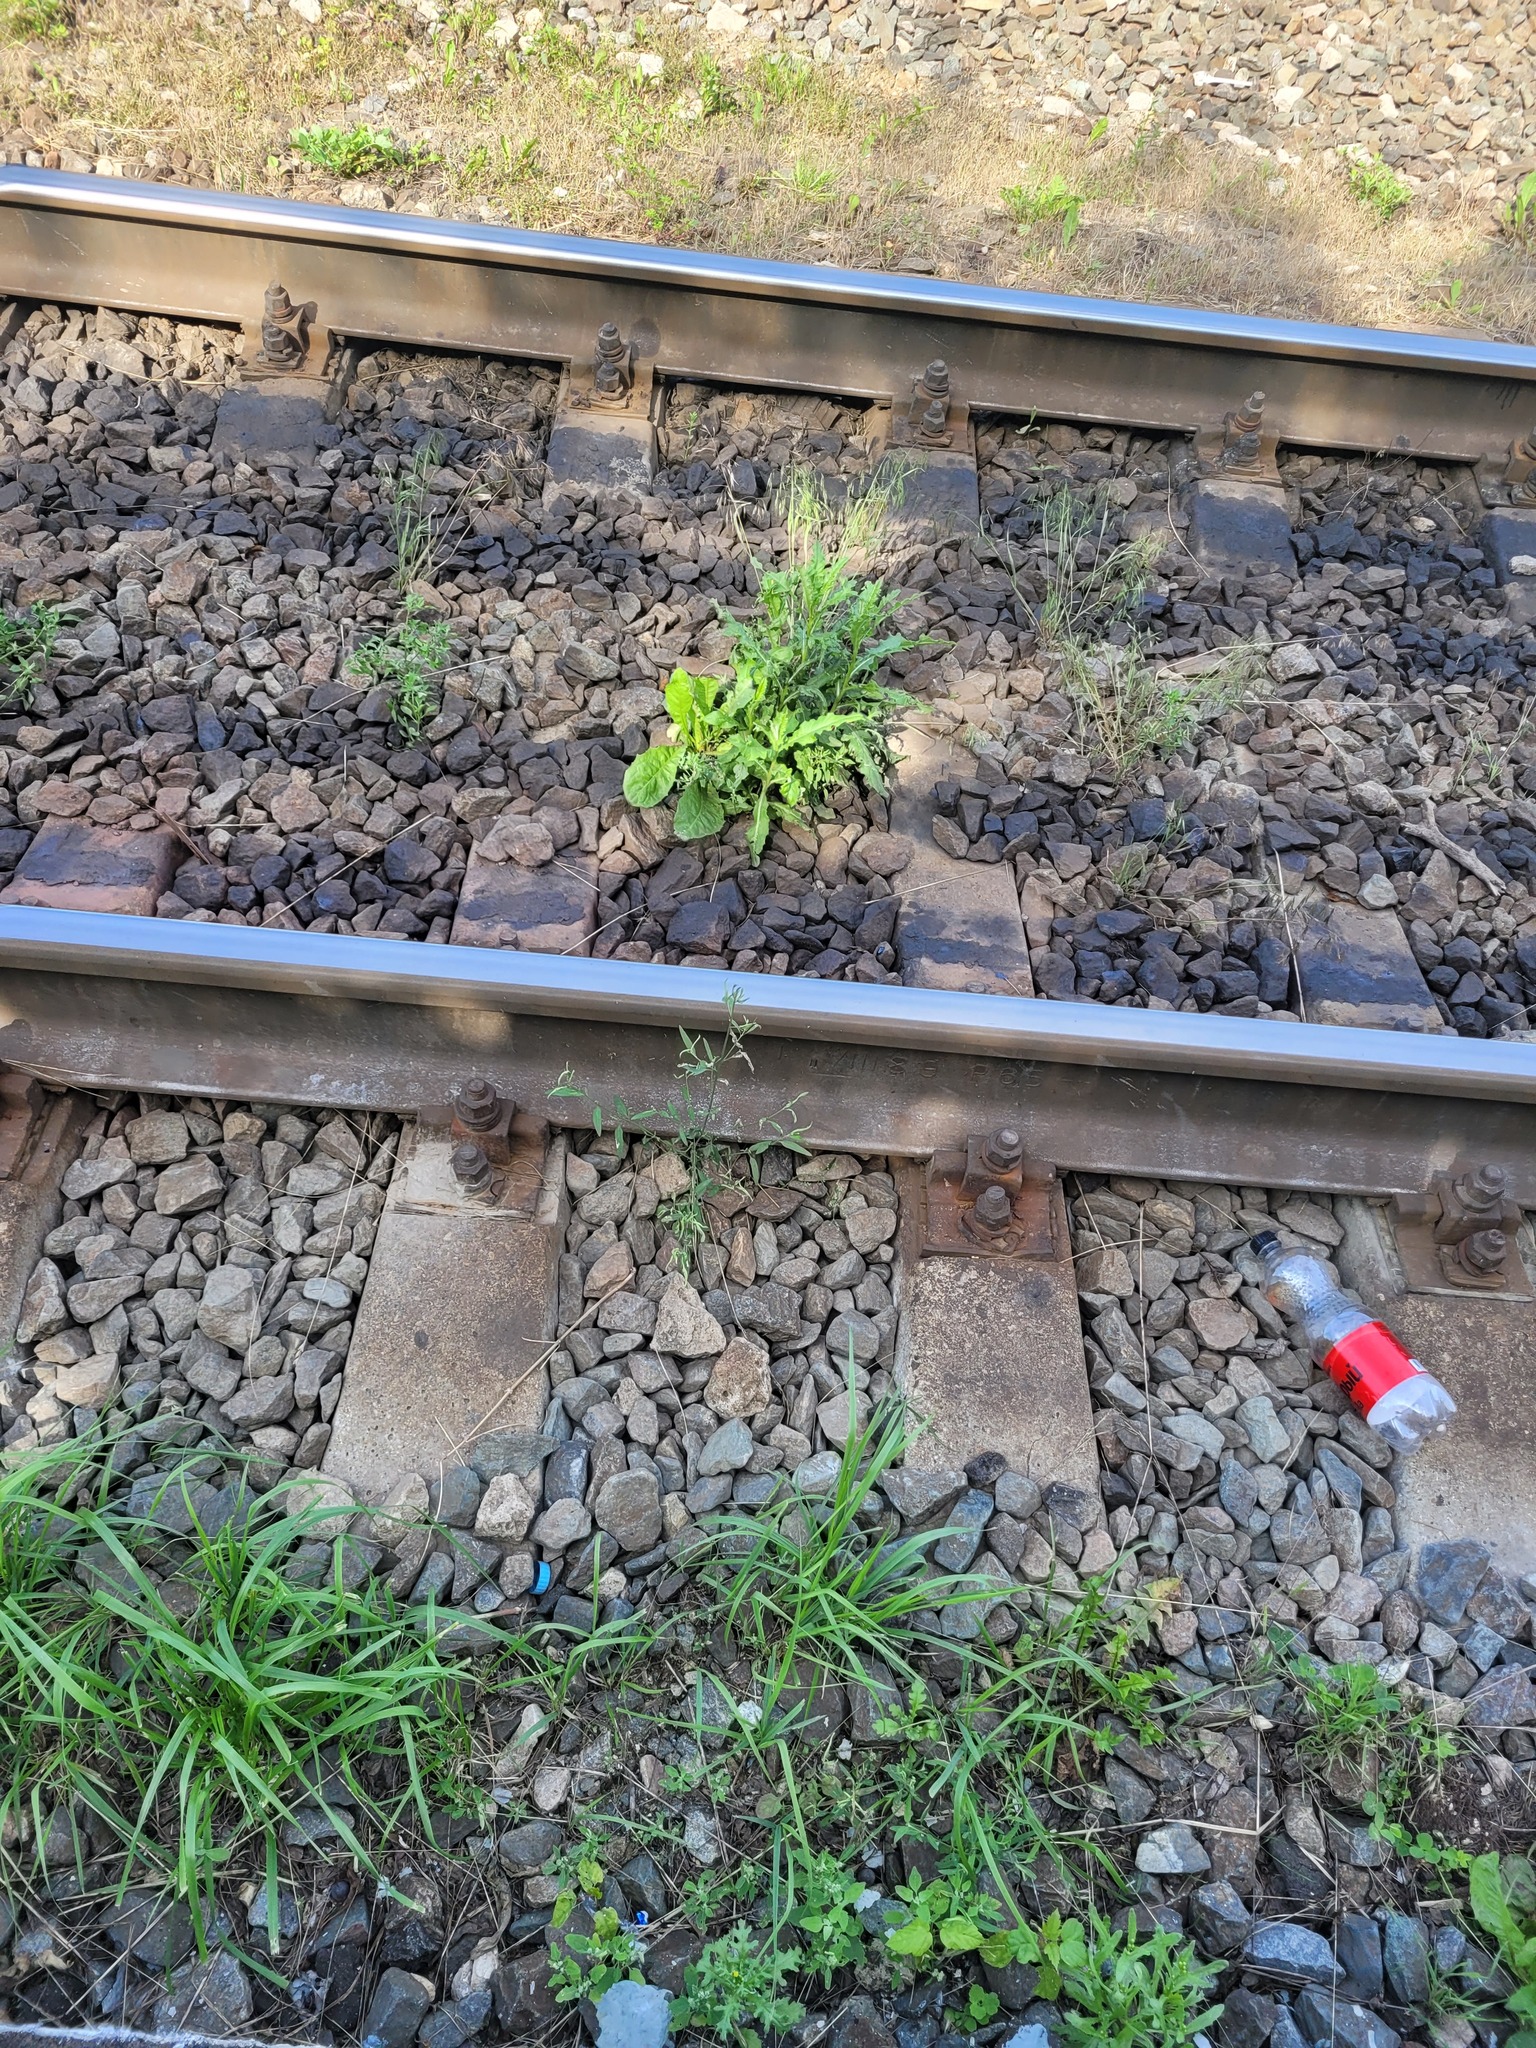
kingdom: Plantae
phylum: Tracheophyta
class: Magnoliopsida
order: Caryophyllales
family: Amaranthaceae
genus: Atriplex
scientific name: Atriplex patula
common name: Common orache
